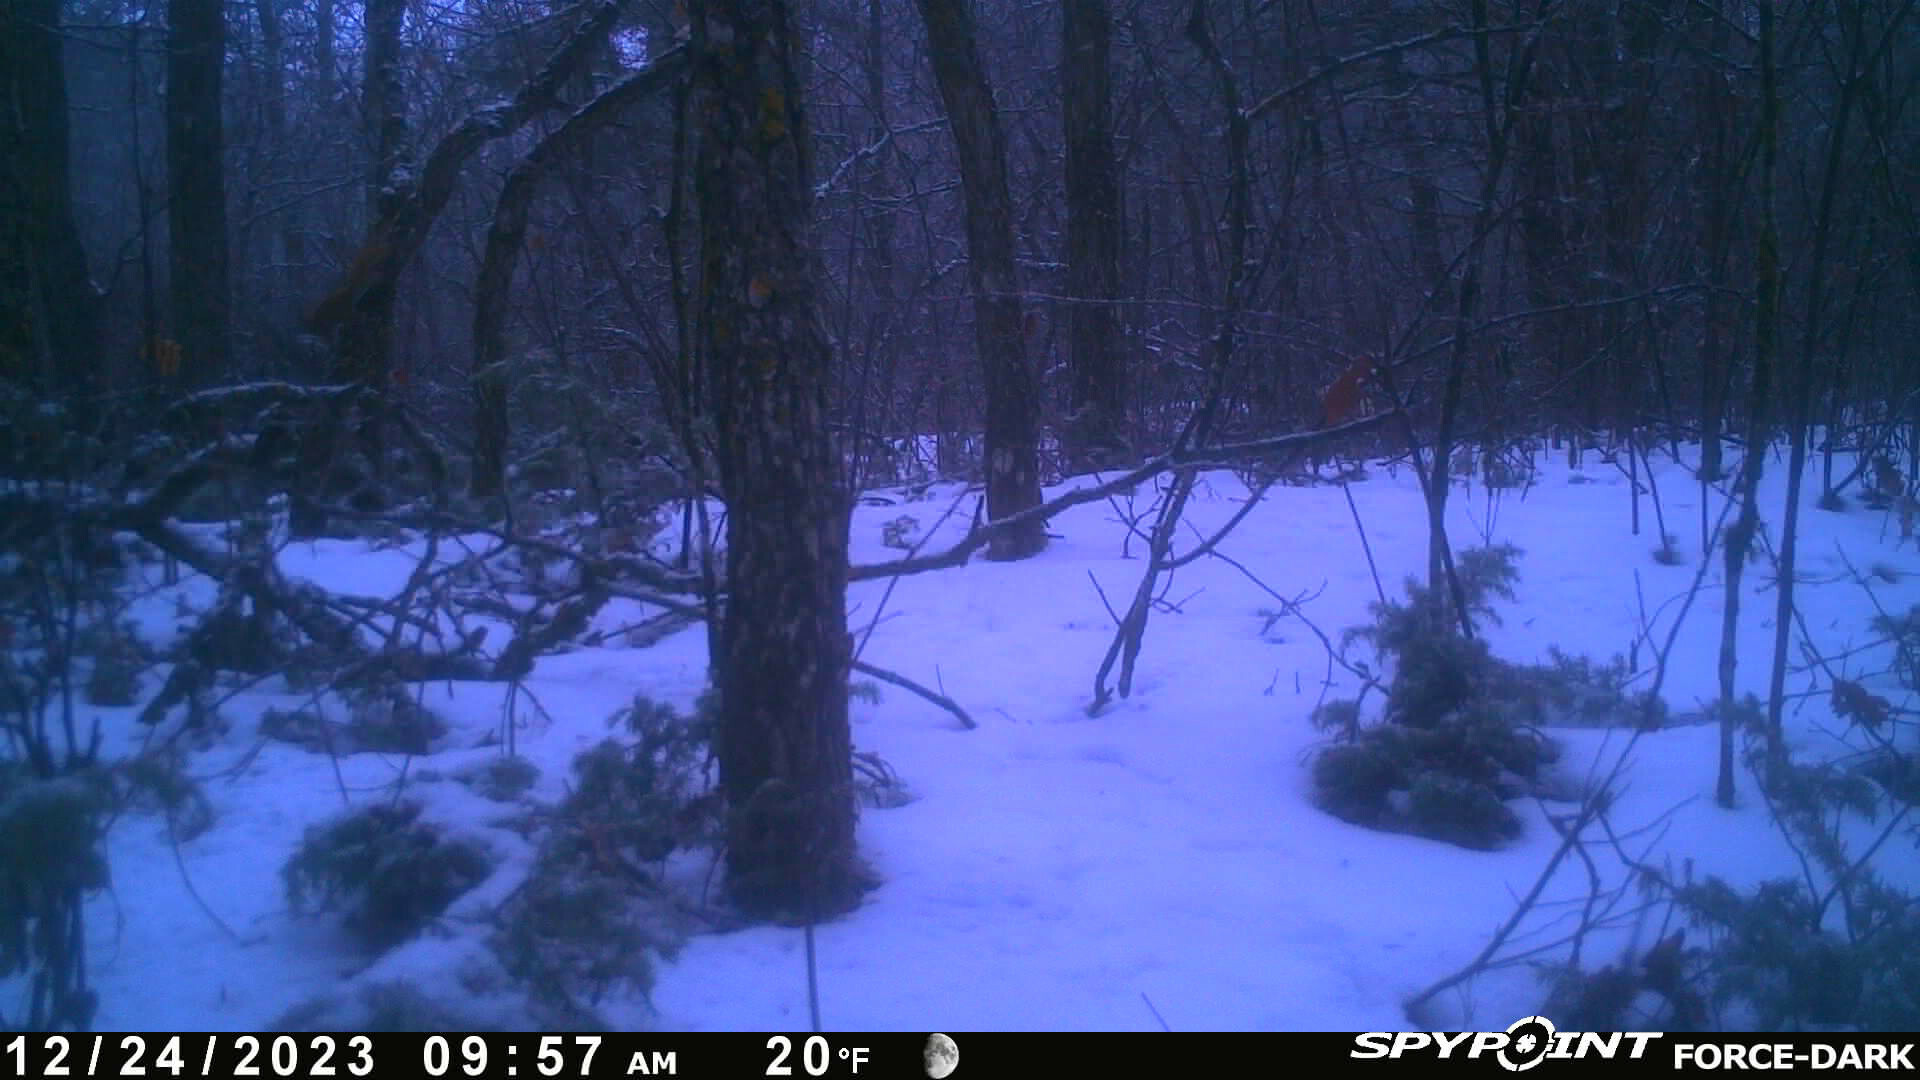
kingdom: Animalia
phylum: Chordata
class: Mammalia
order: Rodentia
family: Sciuridae
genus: Tamiasciurus
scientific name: Tamiasciurus hudsonicus
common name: Red squirrel
